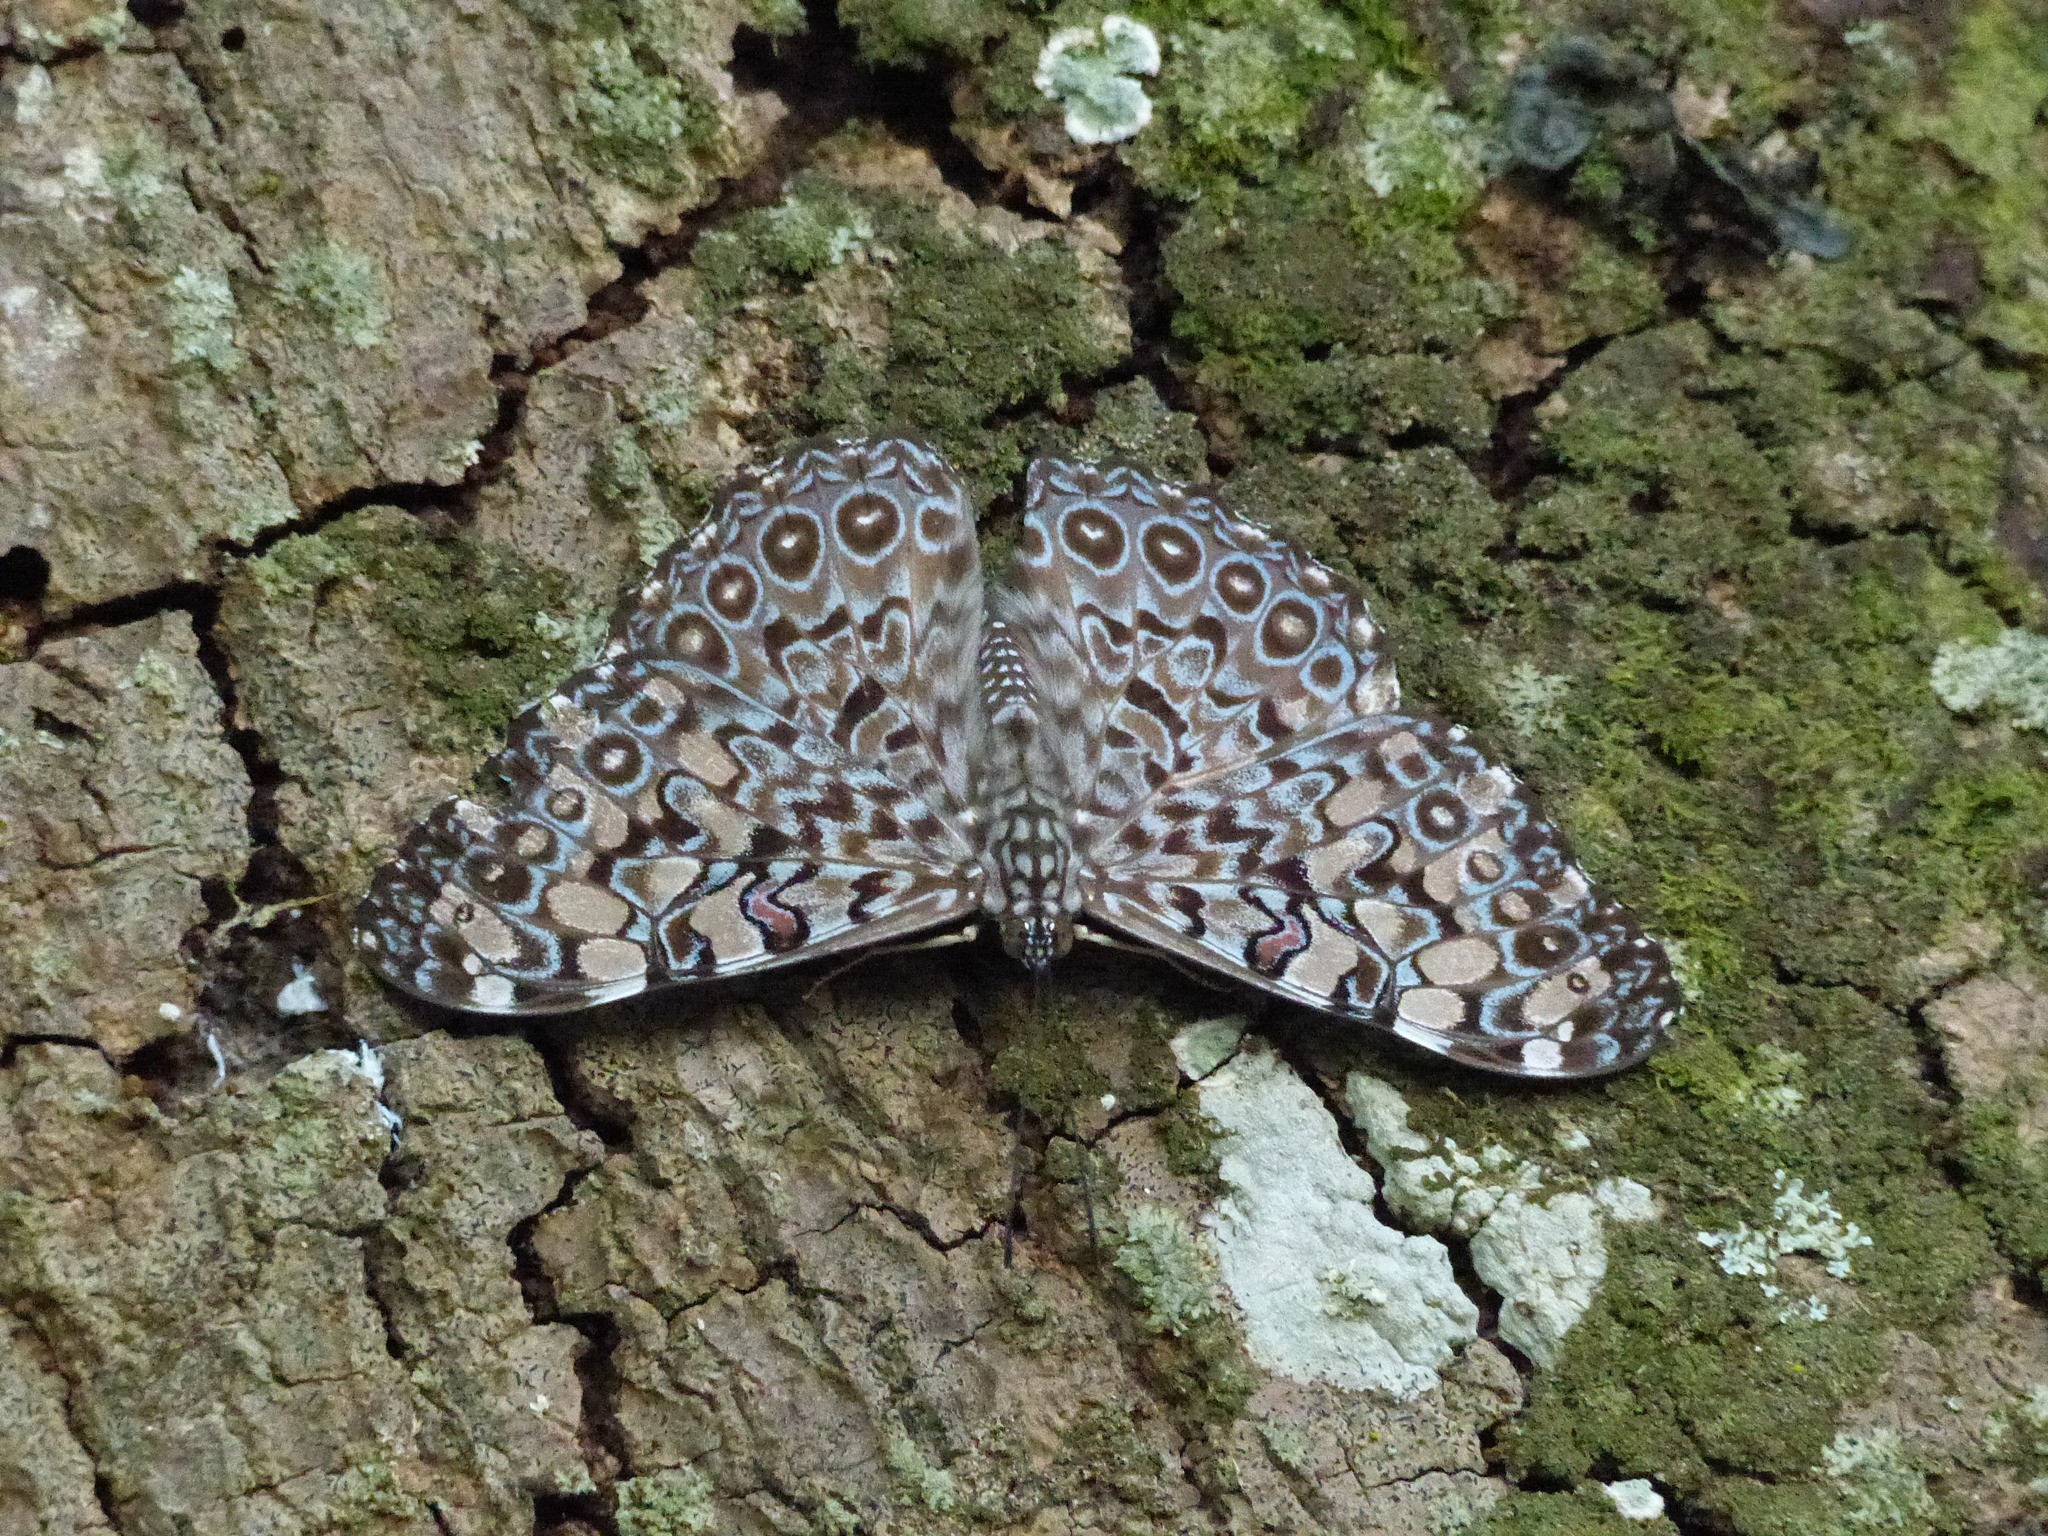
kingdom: Animalia
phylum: Arthropoda
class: Insecta
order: Lepidoptera
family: Nymphalidae
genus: Hamadryas
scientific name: Hamadryas feronia
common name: Variable cracker
